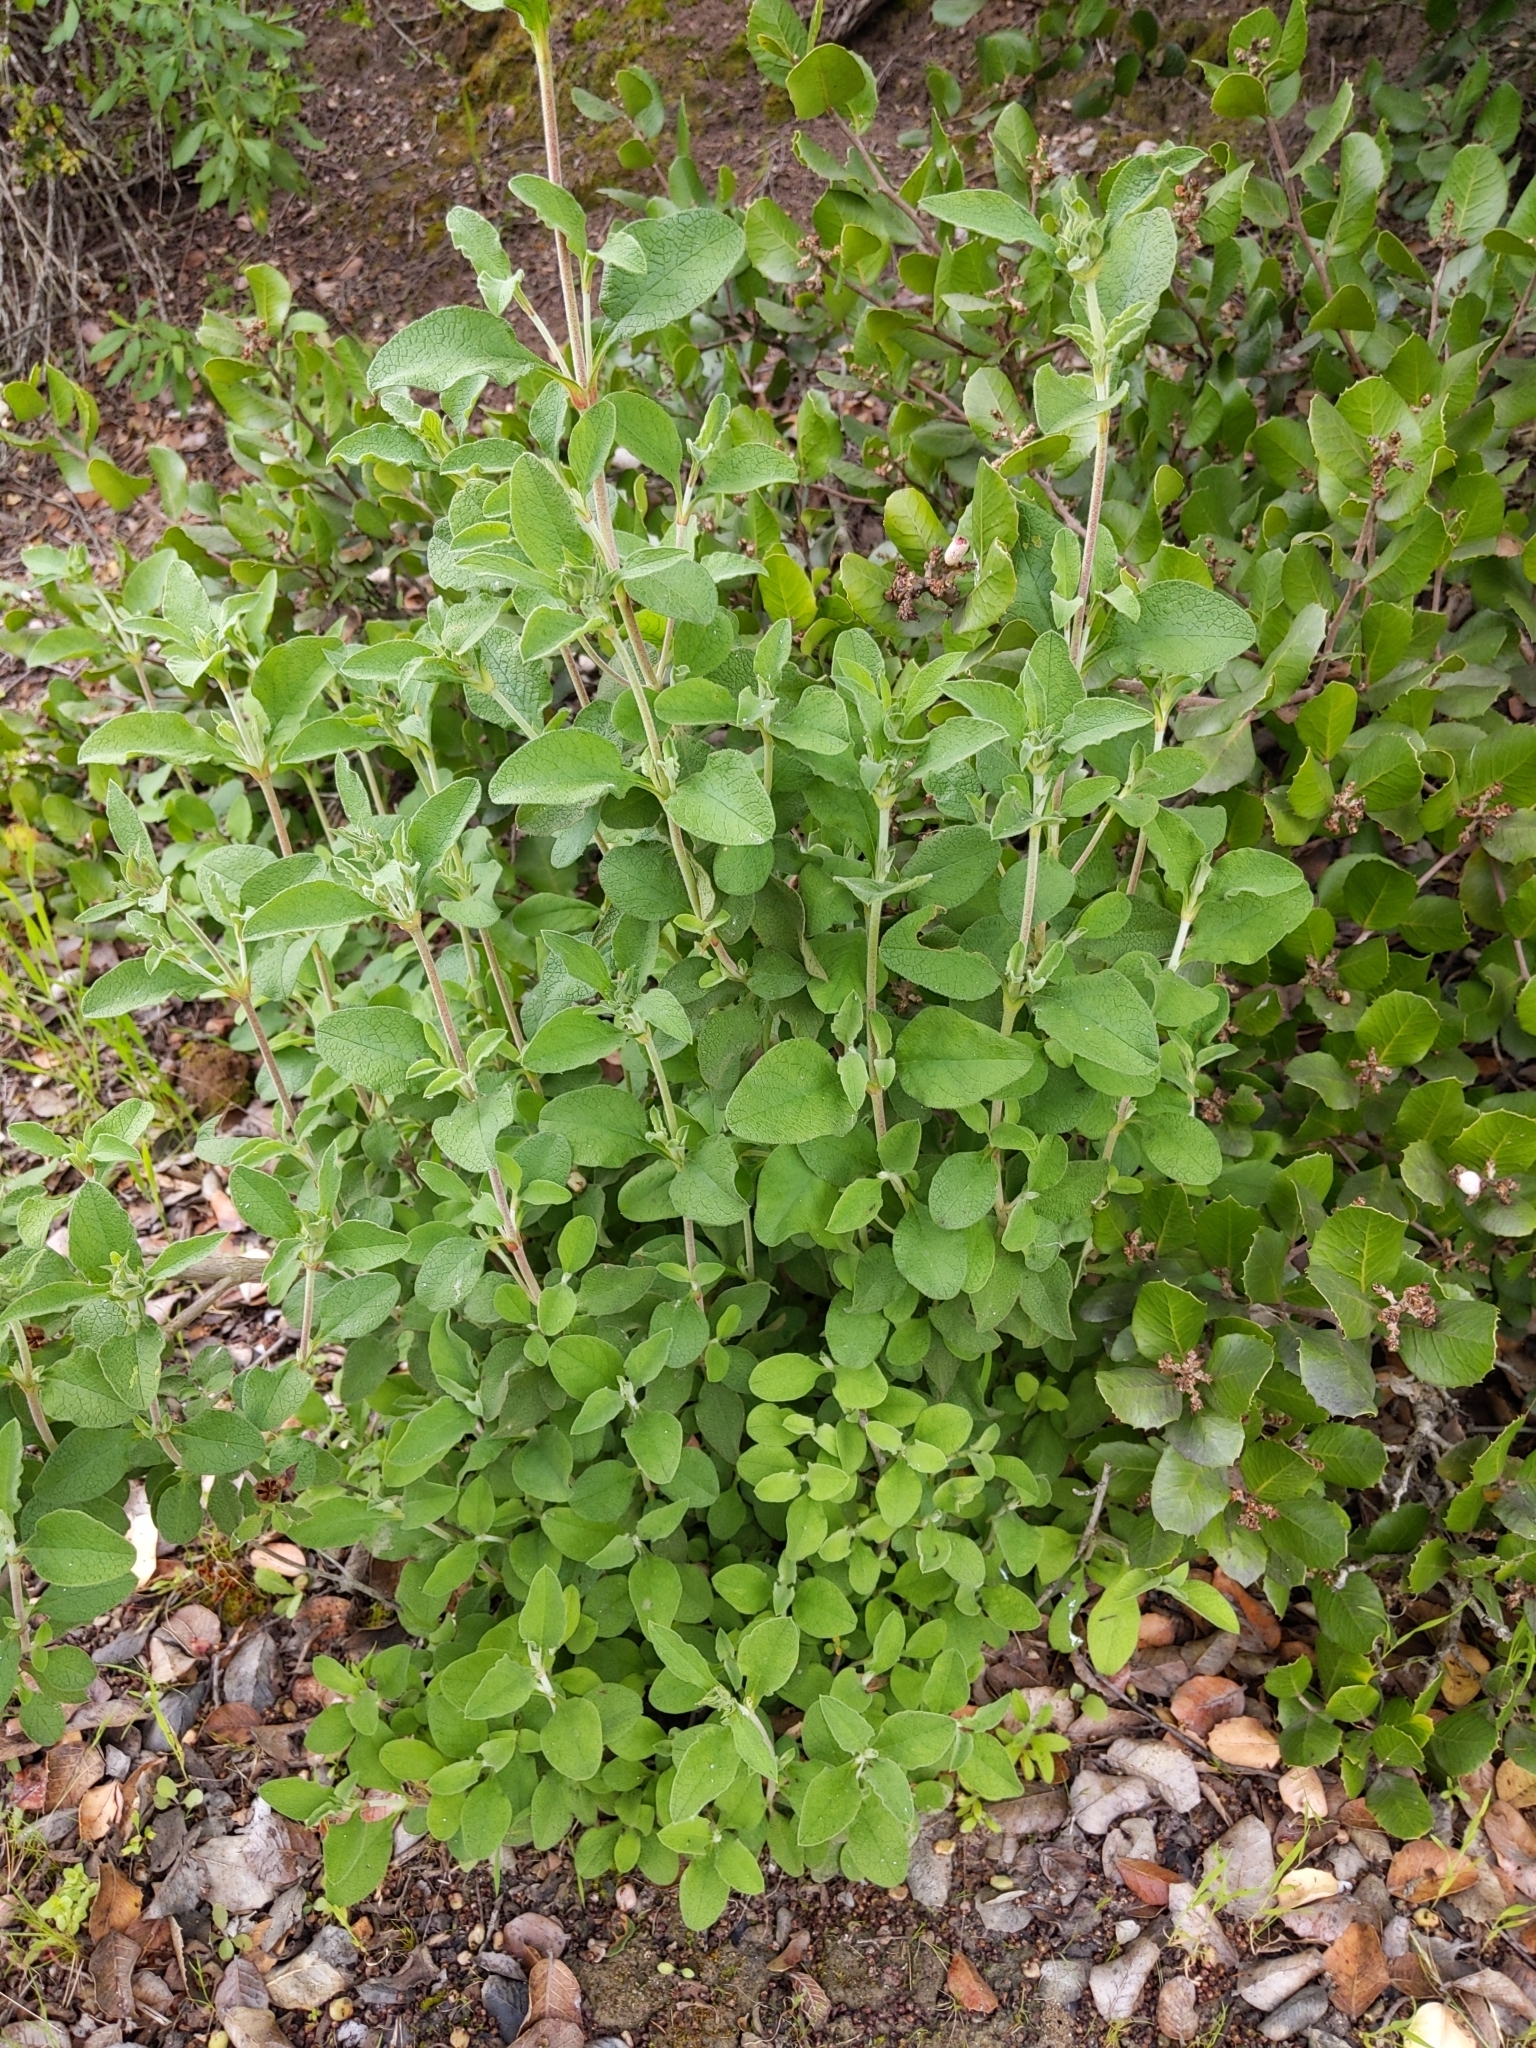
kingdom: Plantae
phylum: Tracheophyta
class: Magnoliopsida
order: Malvales
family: Cistaceae
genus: Cistus
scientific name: Cistus creticus
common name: Cretan rockrose
